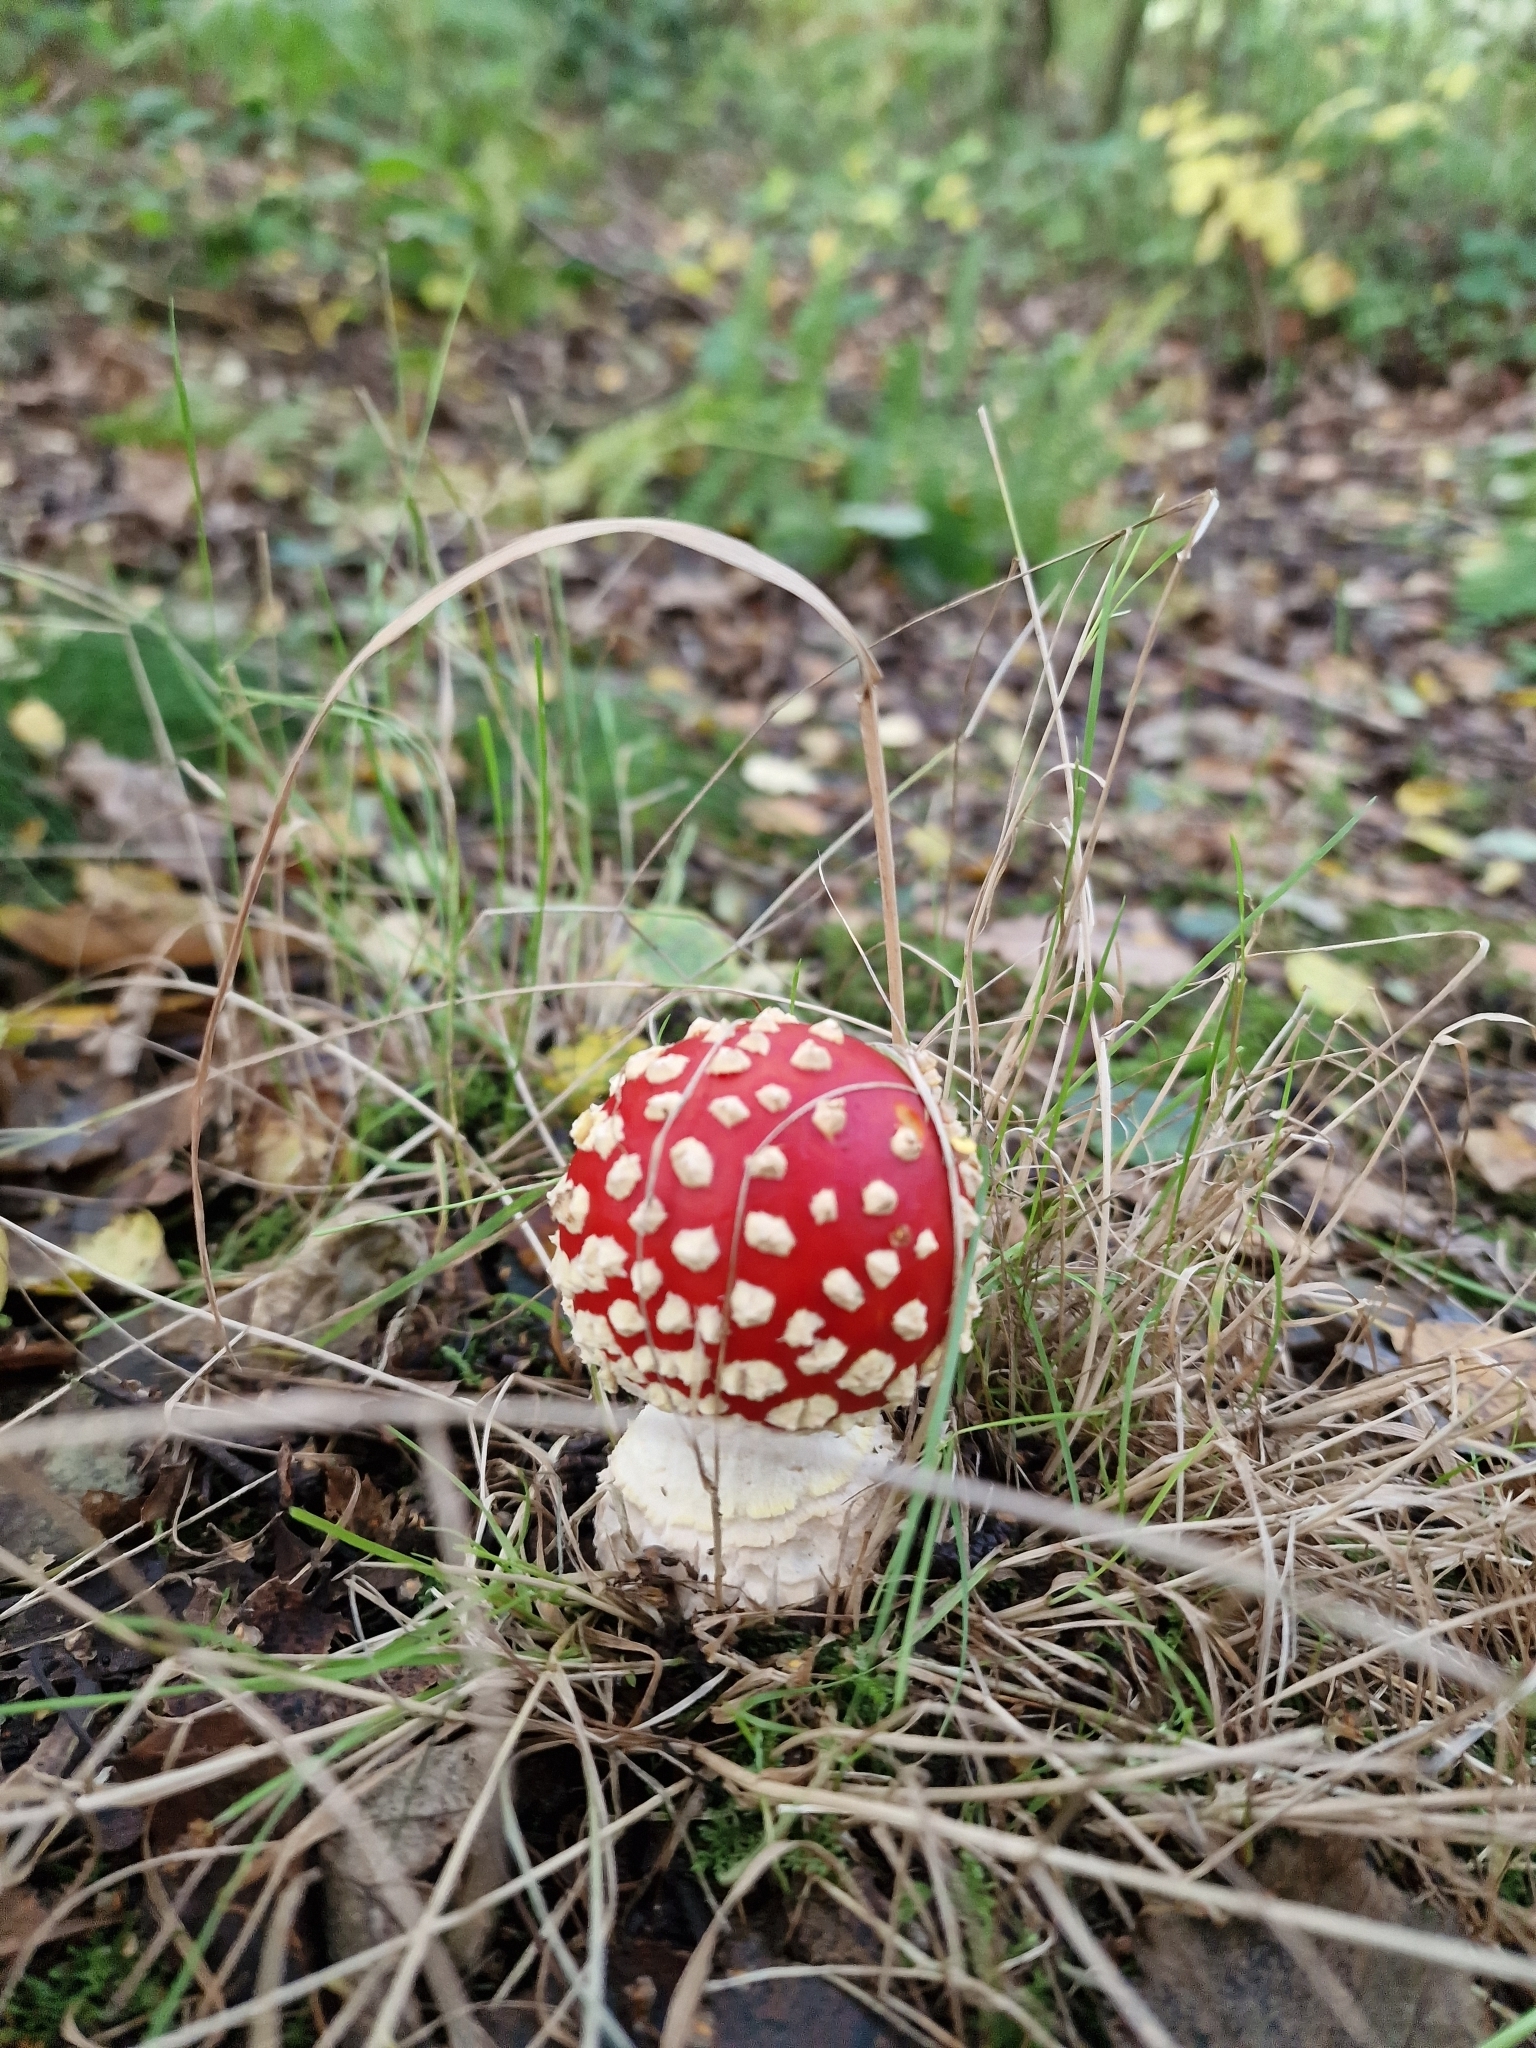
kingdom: Fungi
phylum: Basidiomycota
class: Agaricomycetes
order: Agaricales
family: Amanitaceae
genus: Amanita
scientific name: Amanita muscaria
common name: Fly agaric
